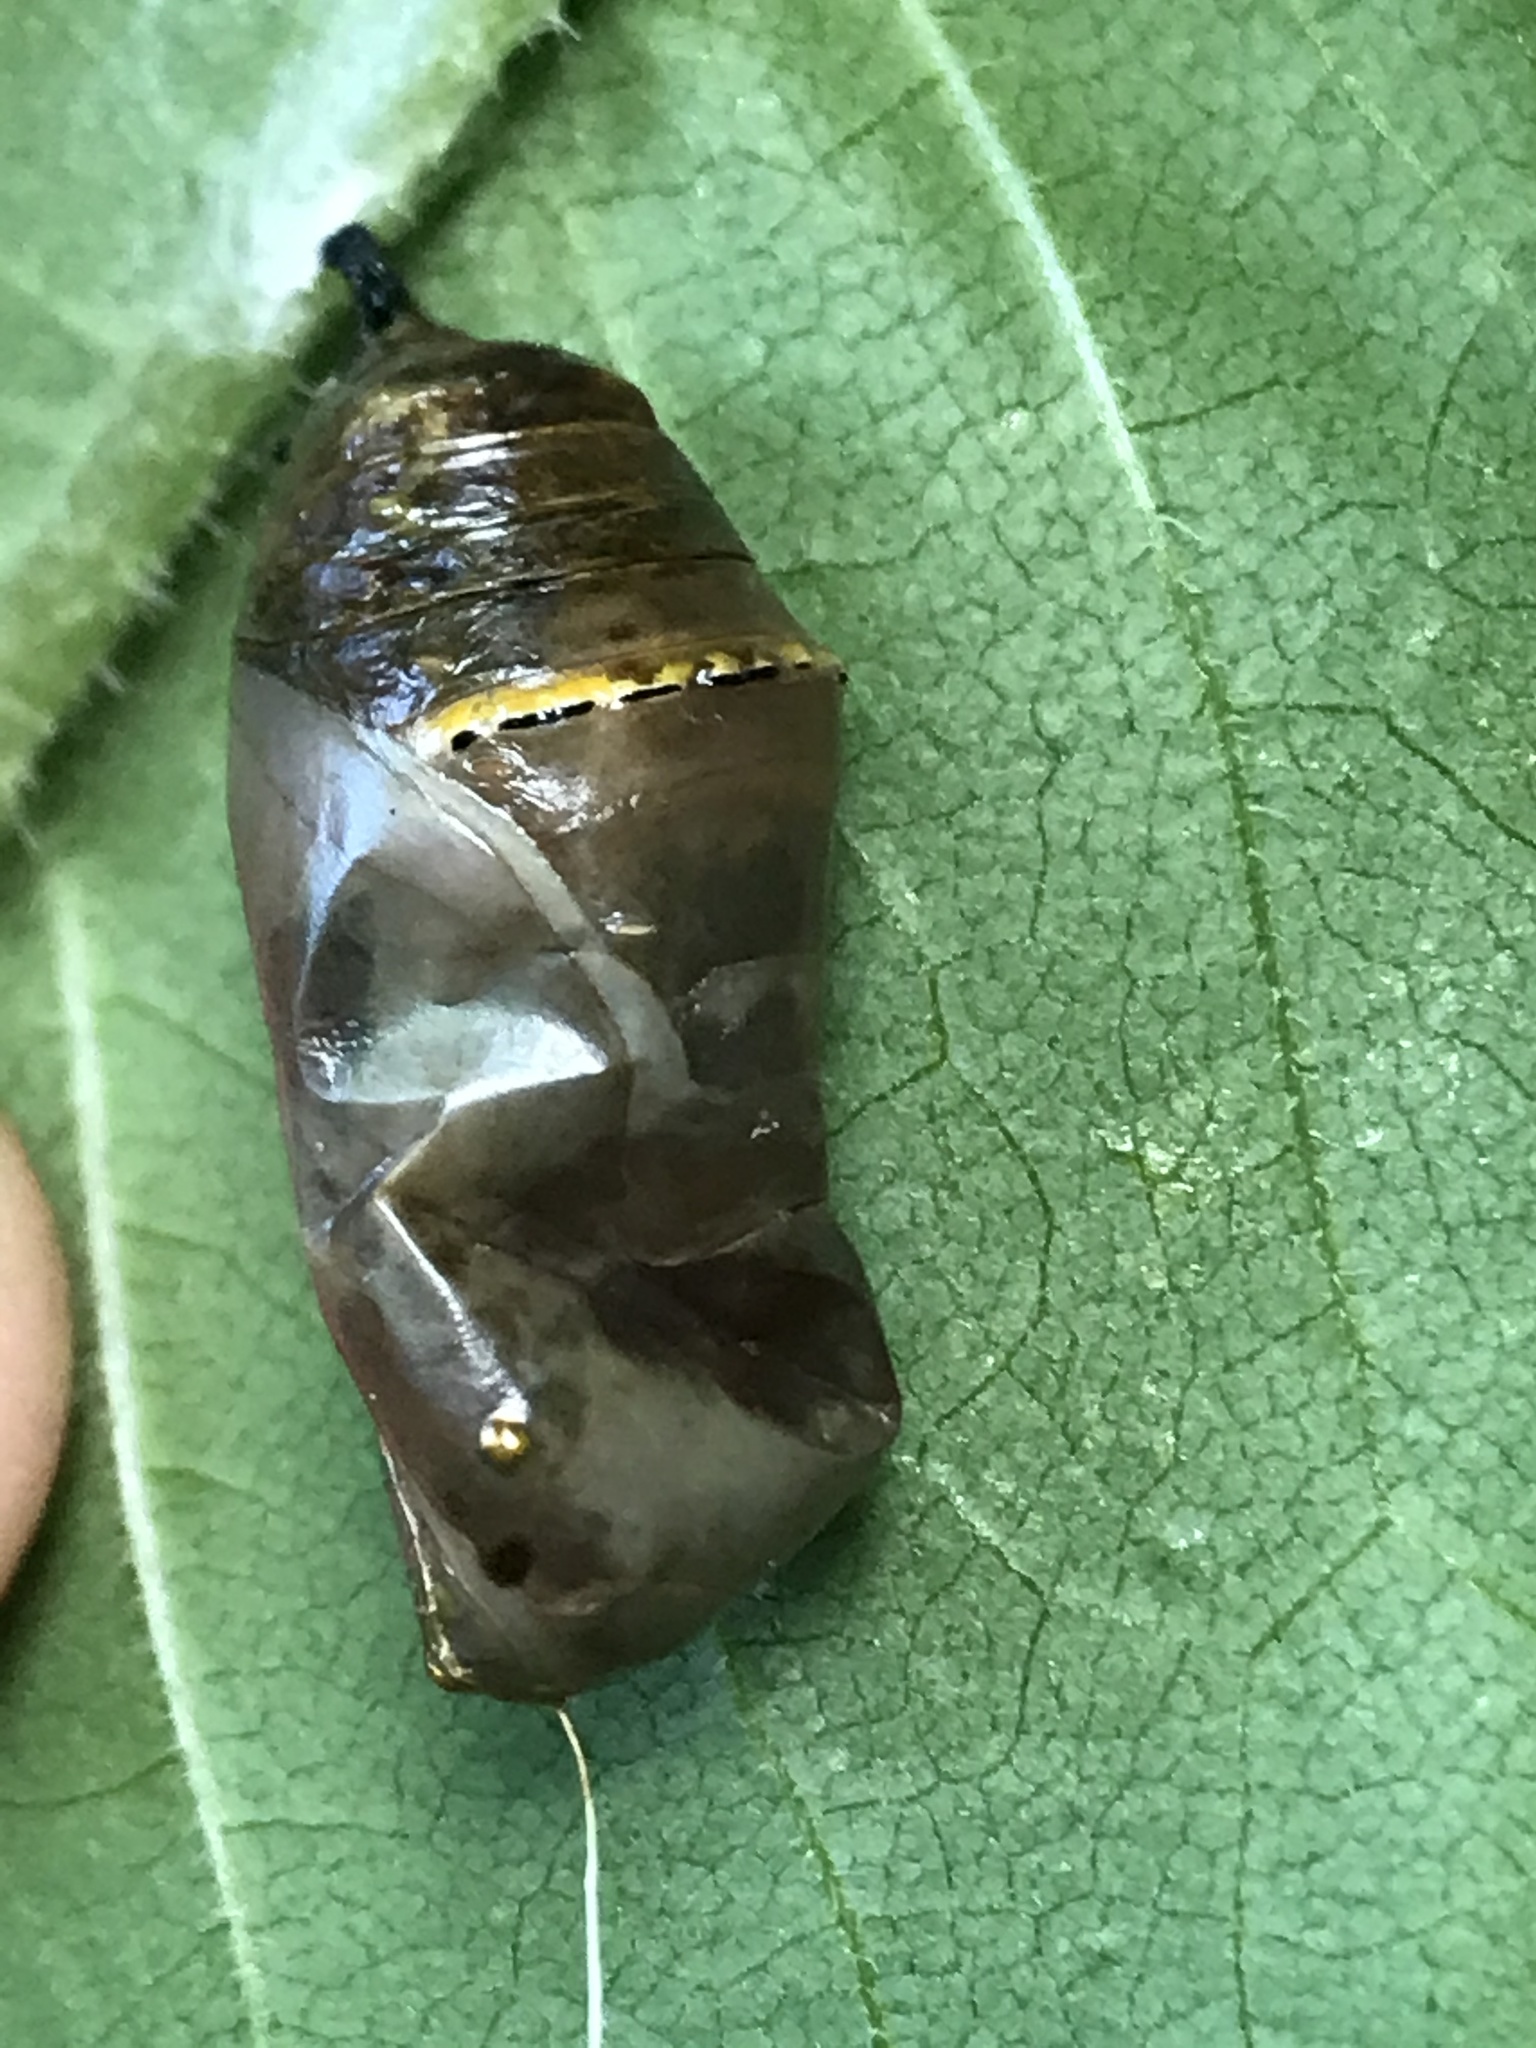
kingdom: Animalia
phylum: Arthropoda
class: Insecta
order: Lepidoptera
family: Nymphalidae
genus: Danaus
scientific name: Danaus plexippus
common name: Monarch
